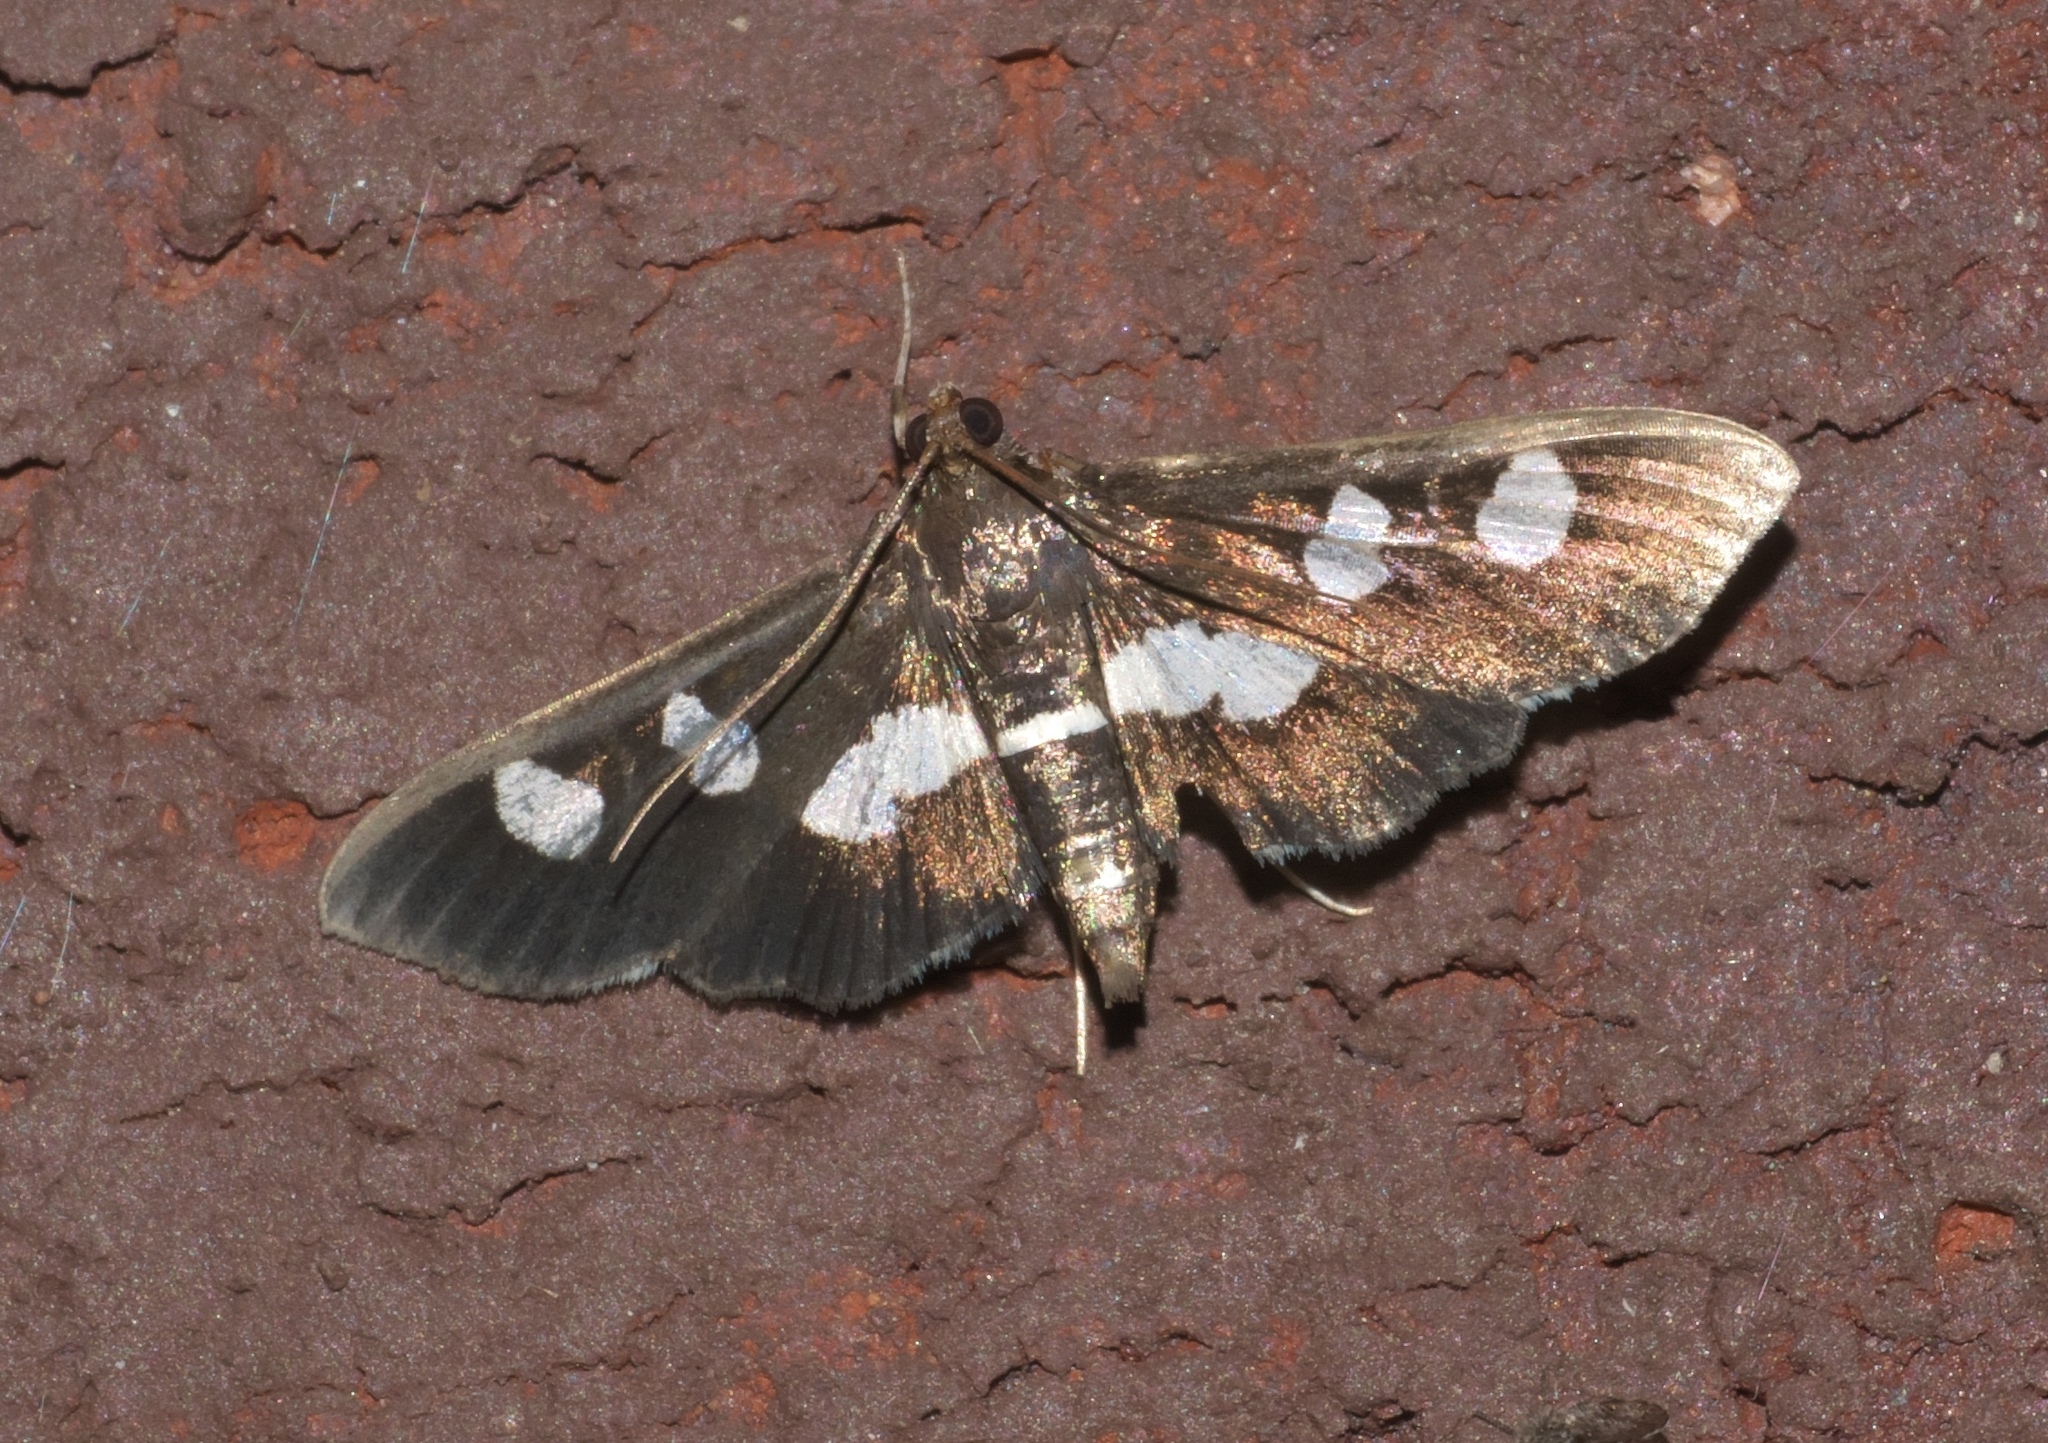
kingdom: Animalia
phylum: Arthropoda
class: Insecta
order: Lepidoptera
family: Crambidae
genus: Desmia
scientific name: Desmia
